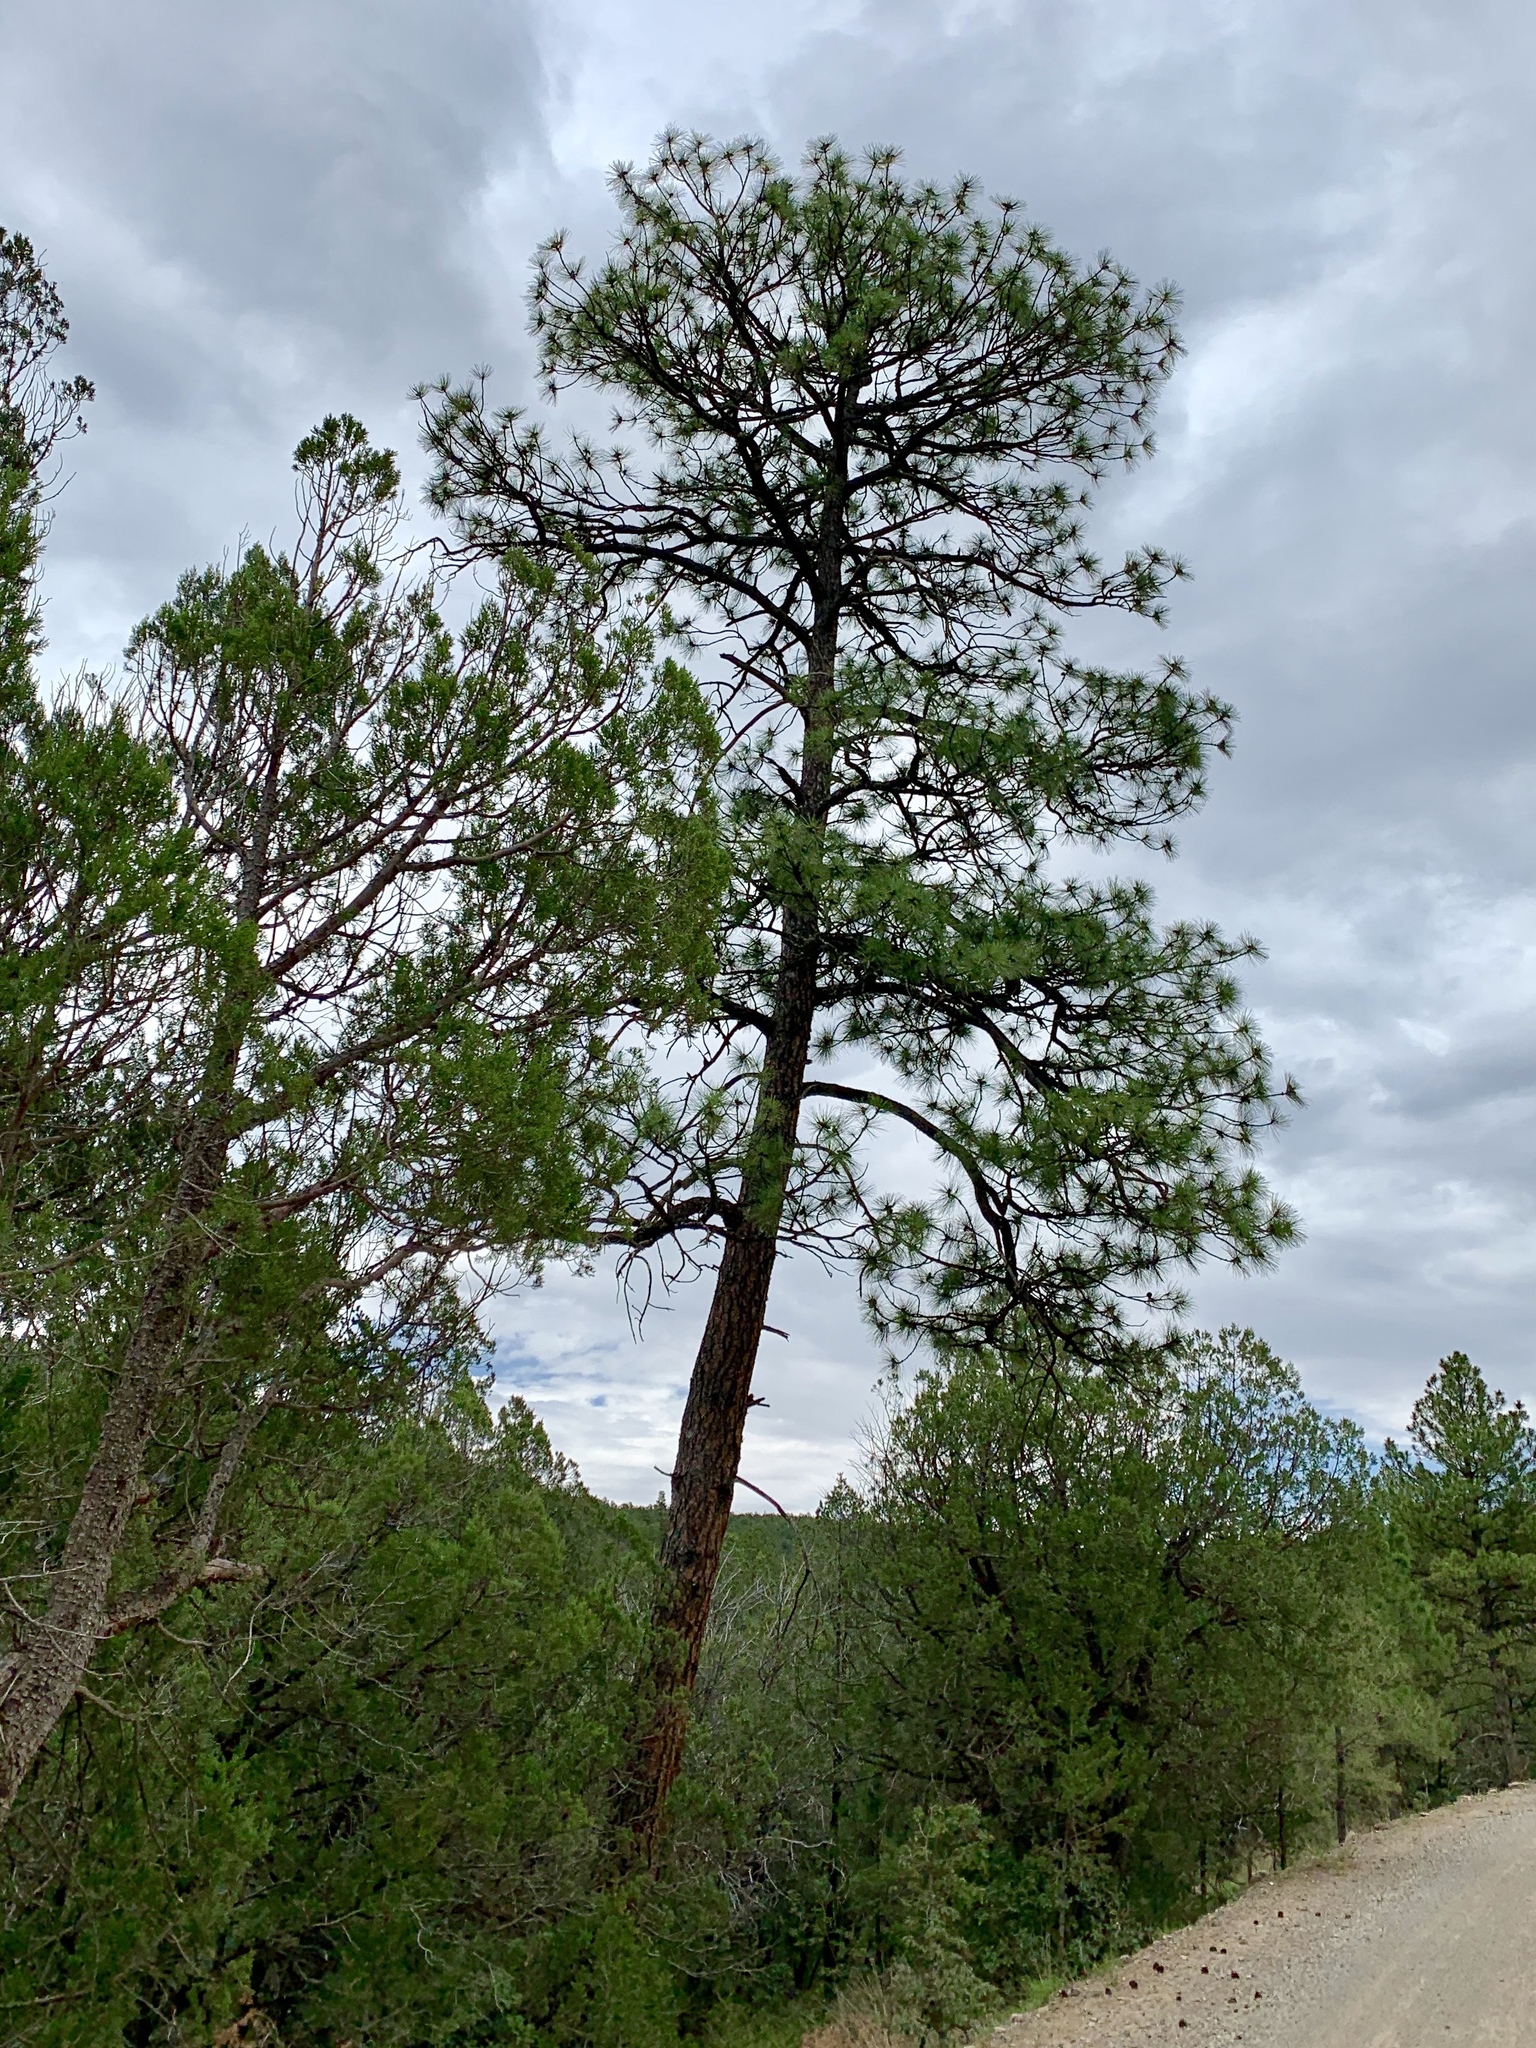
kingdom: Plantae
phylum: Tracheophyta
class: Pinopsida
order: Pinales
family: Pinaceae
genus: Pinus
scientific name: Pinus ponderosa
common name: Western yellow-pine
